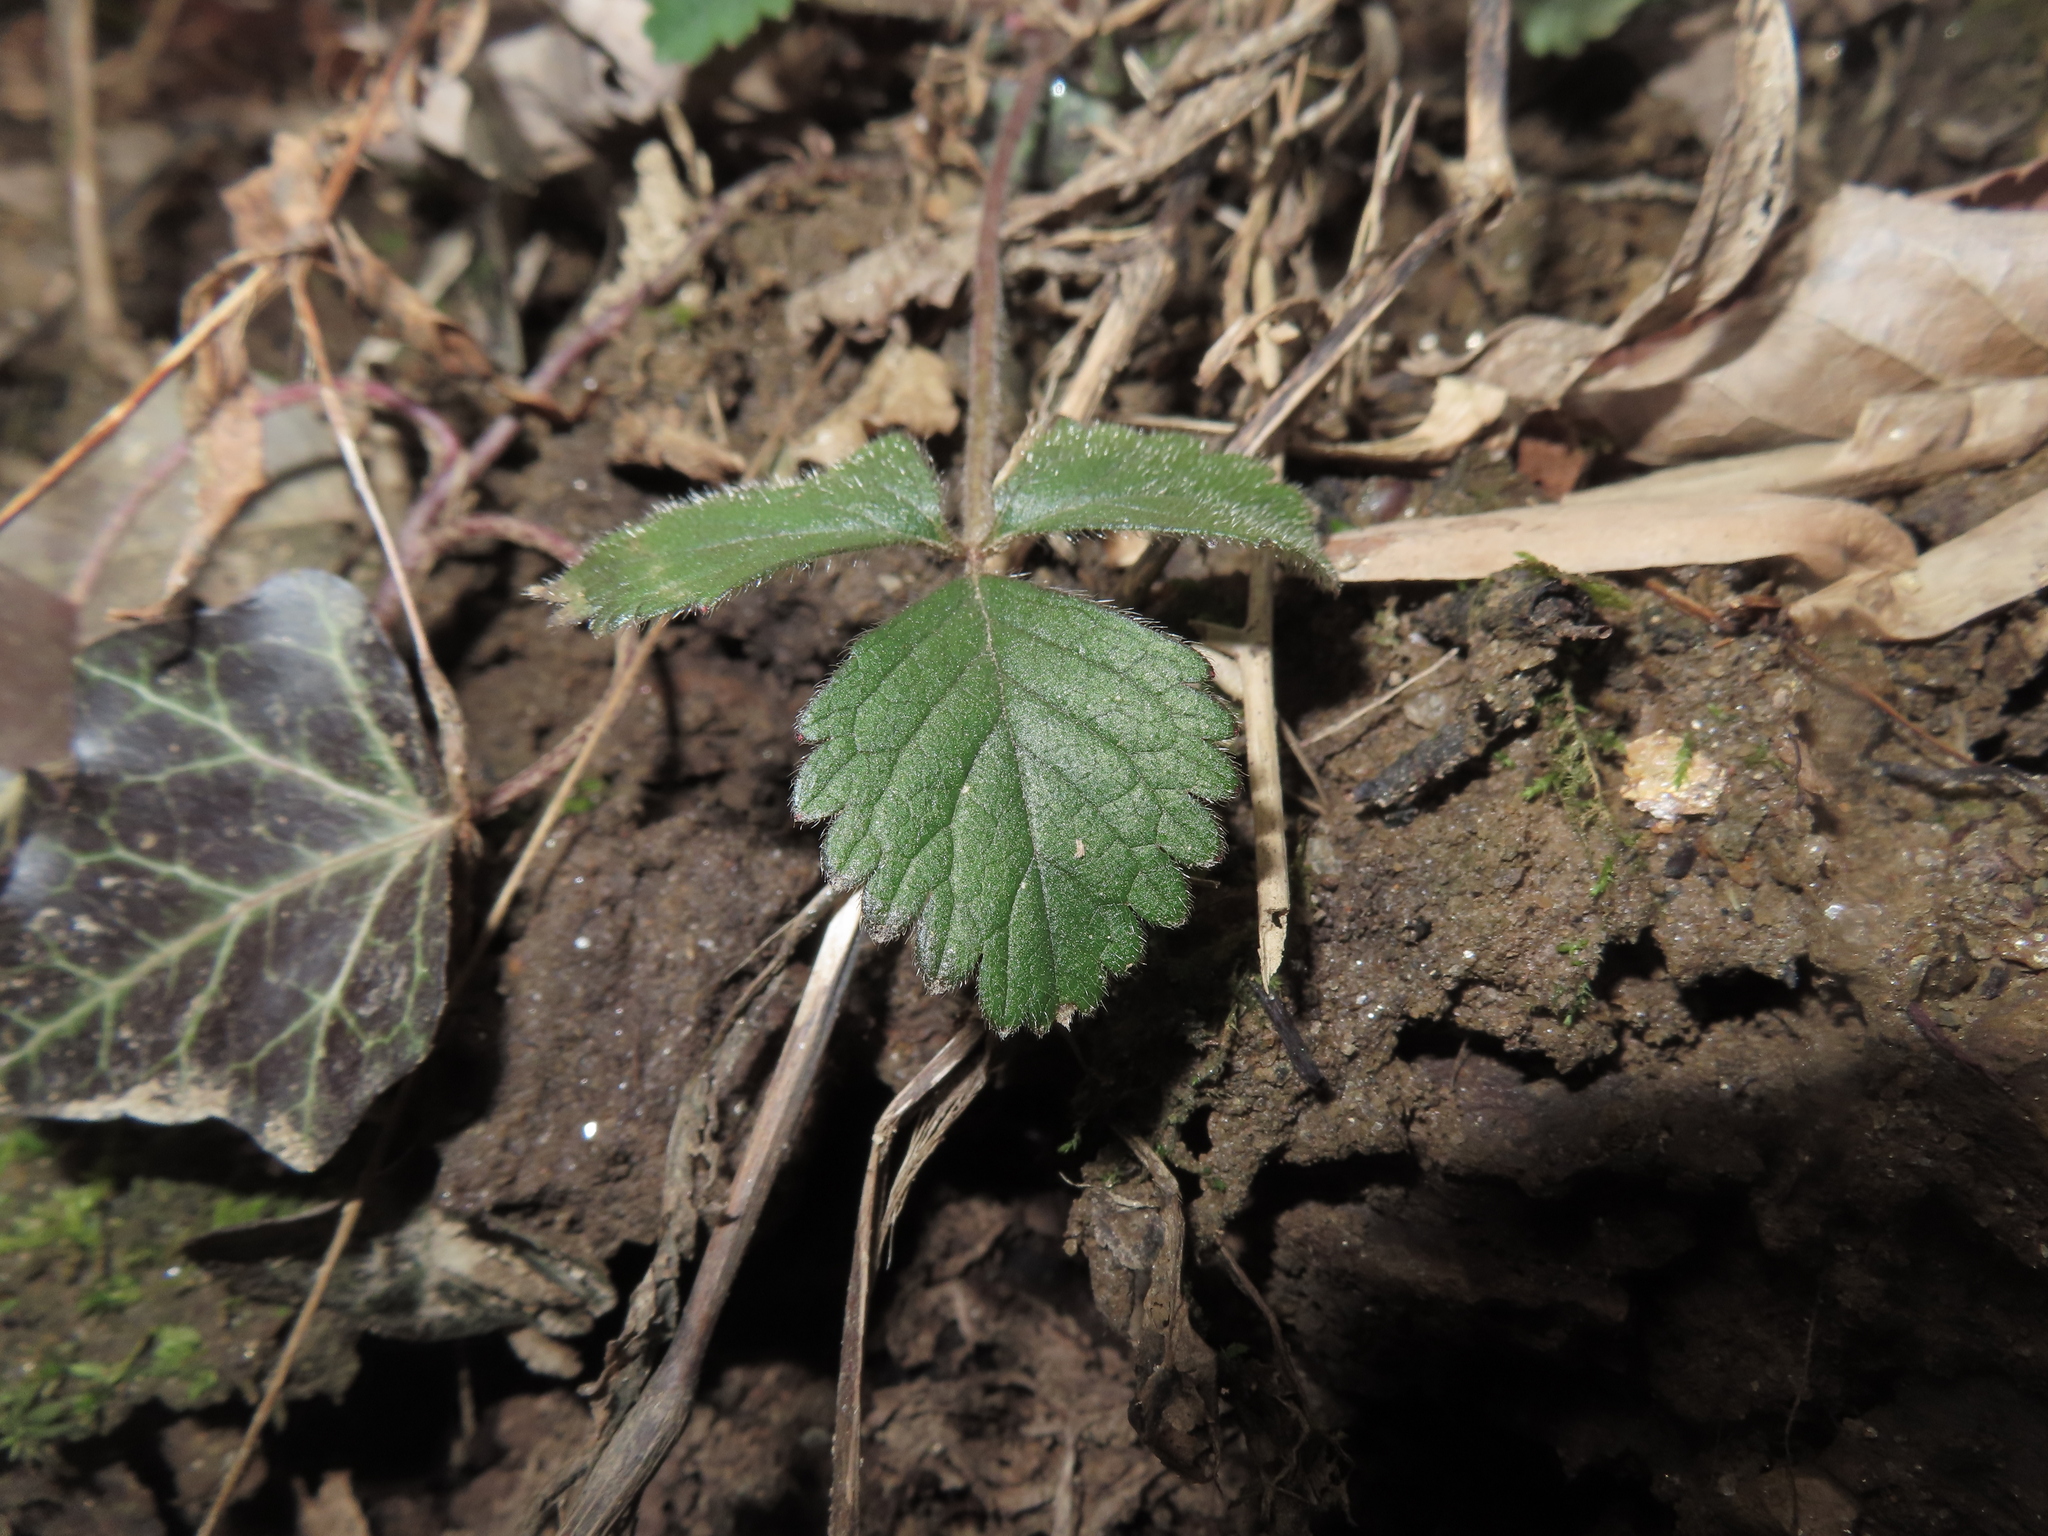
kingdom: Plantae
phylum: Tracheophyta
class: Magnoliopsida
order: Rosales
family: Rosaceae
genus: Potentilla
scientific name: Potentilla indica
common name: Yellow-flowered strawberry
